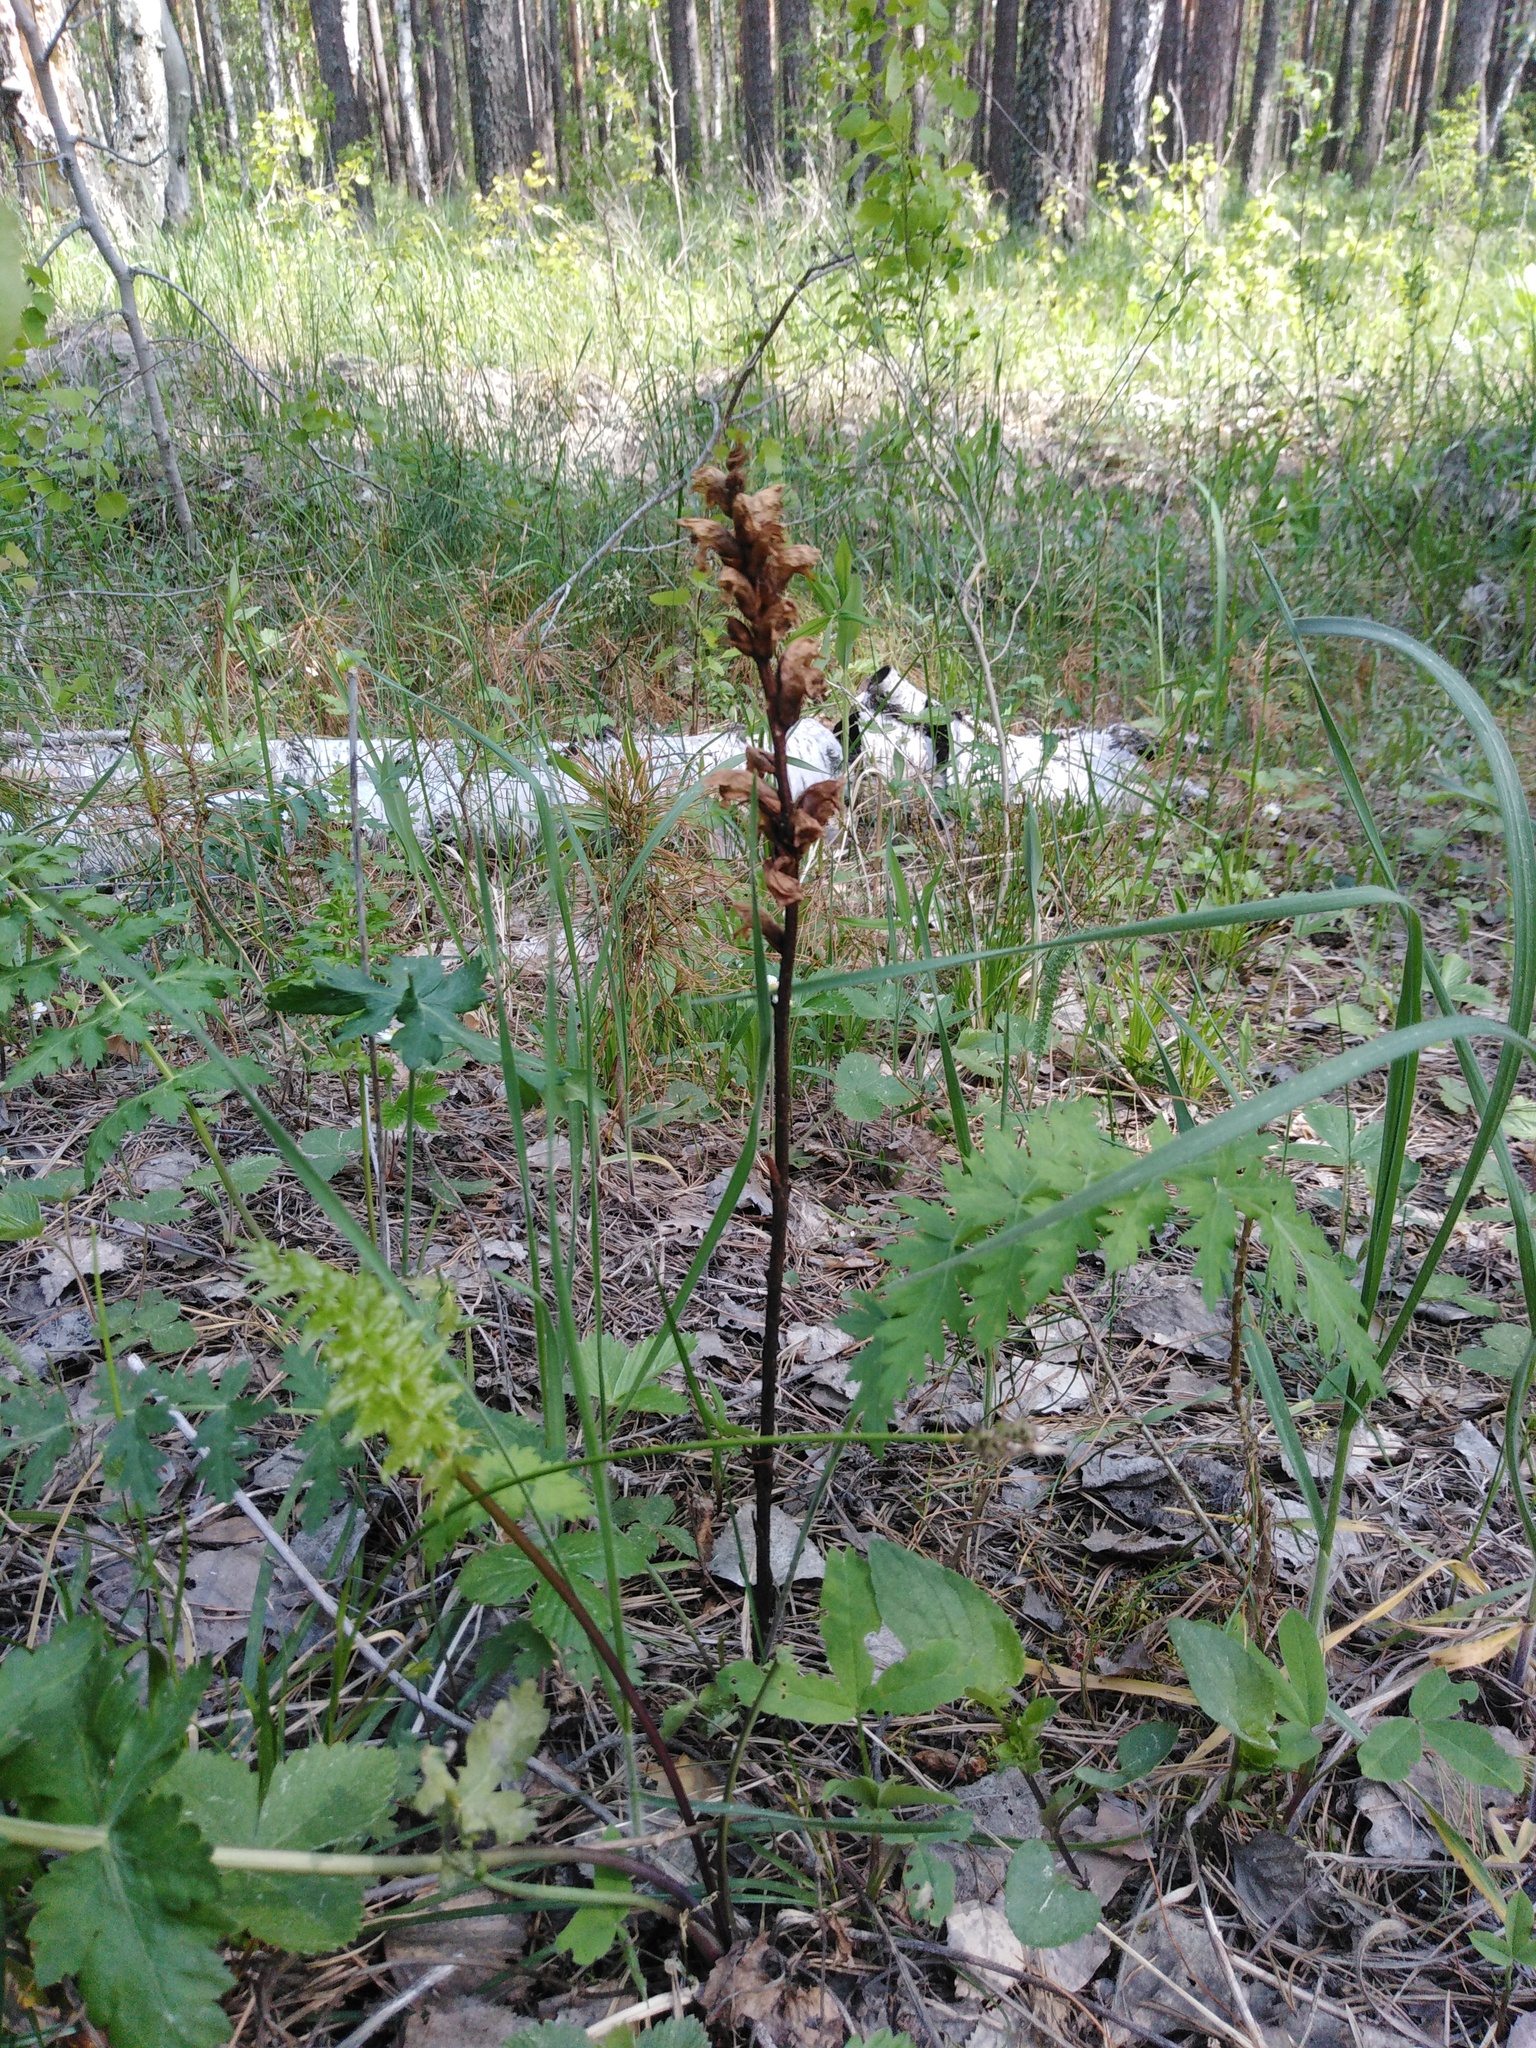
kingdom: Plantae
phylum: Tracheophyta
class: Magnoliopsida
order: Lamiales
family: Orobanchaceae
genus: Orobanche
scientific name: Orobanche alsatica
